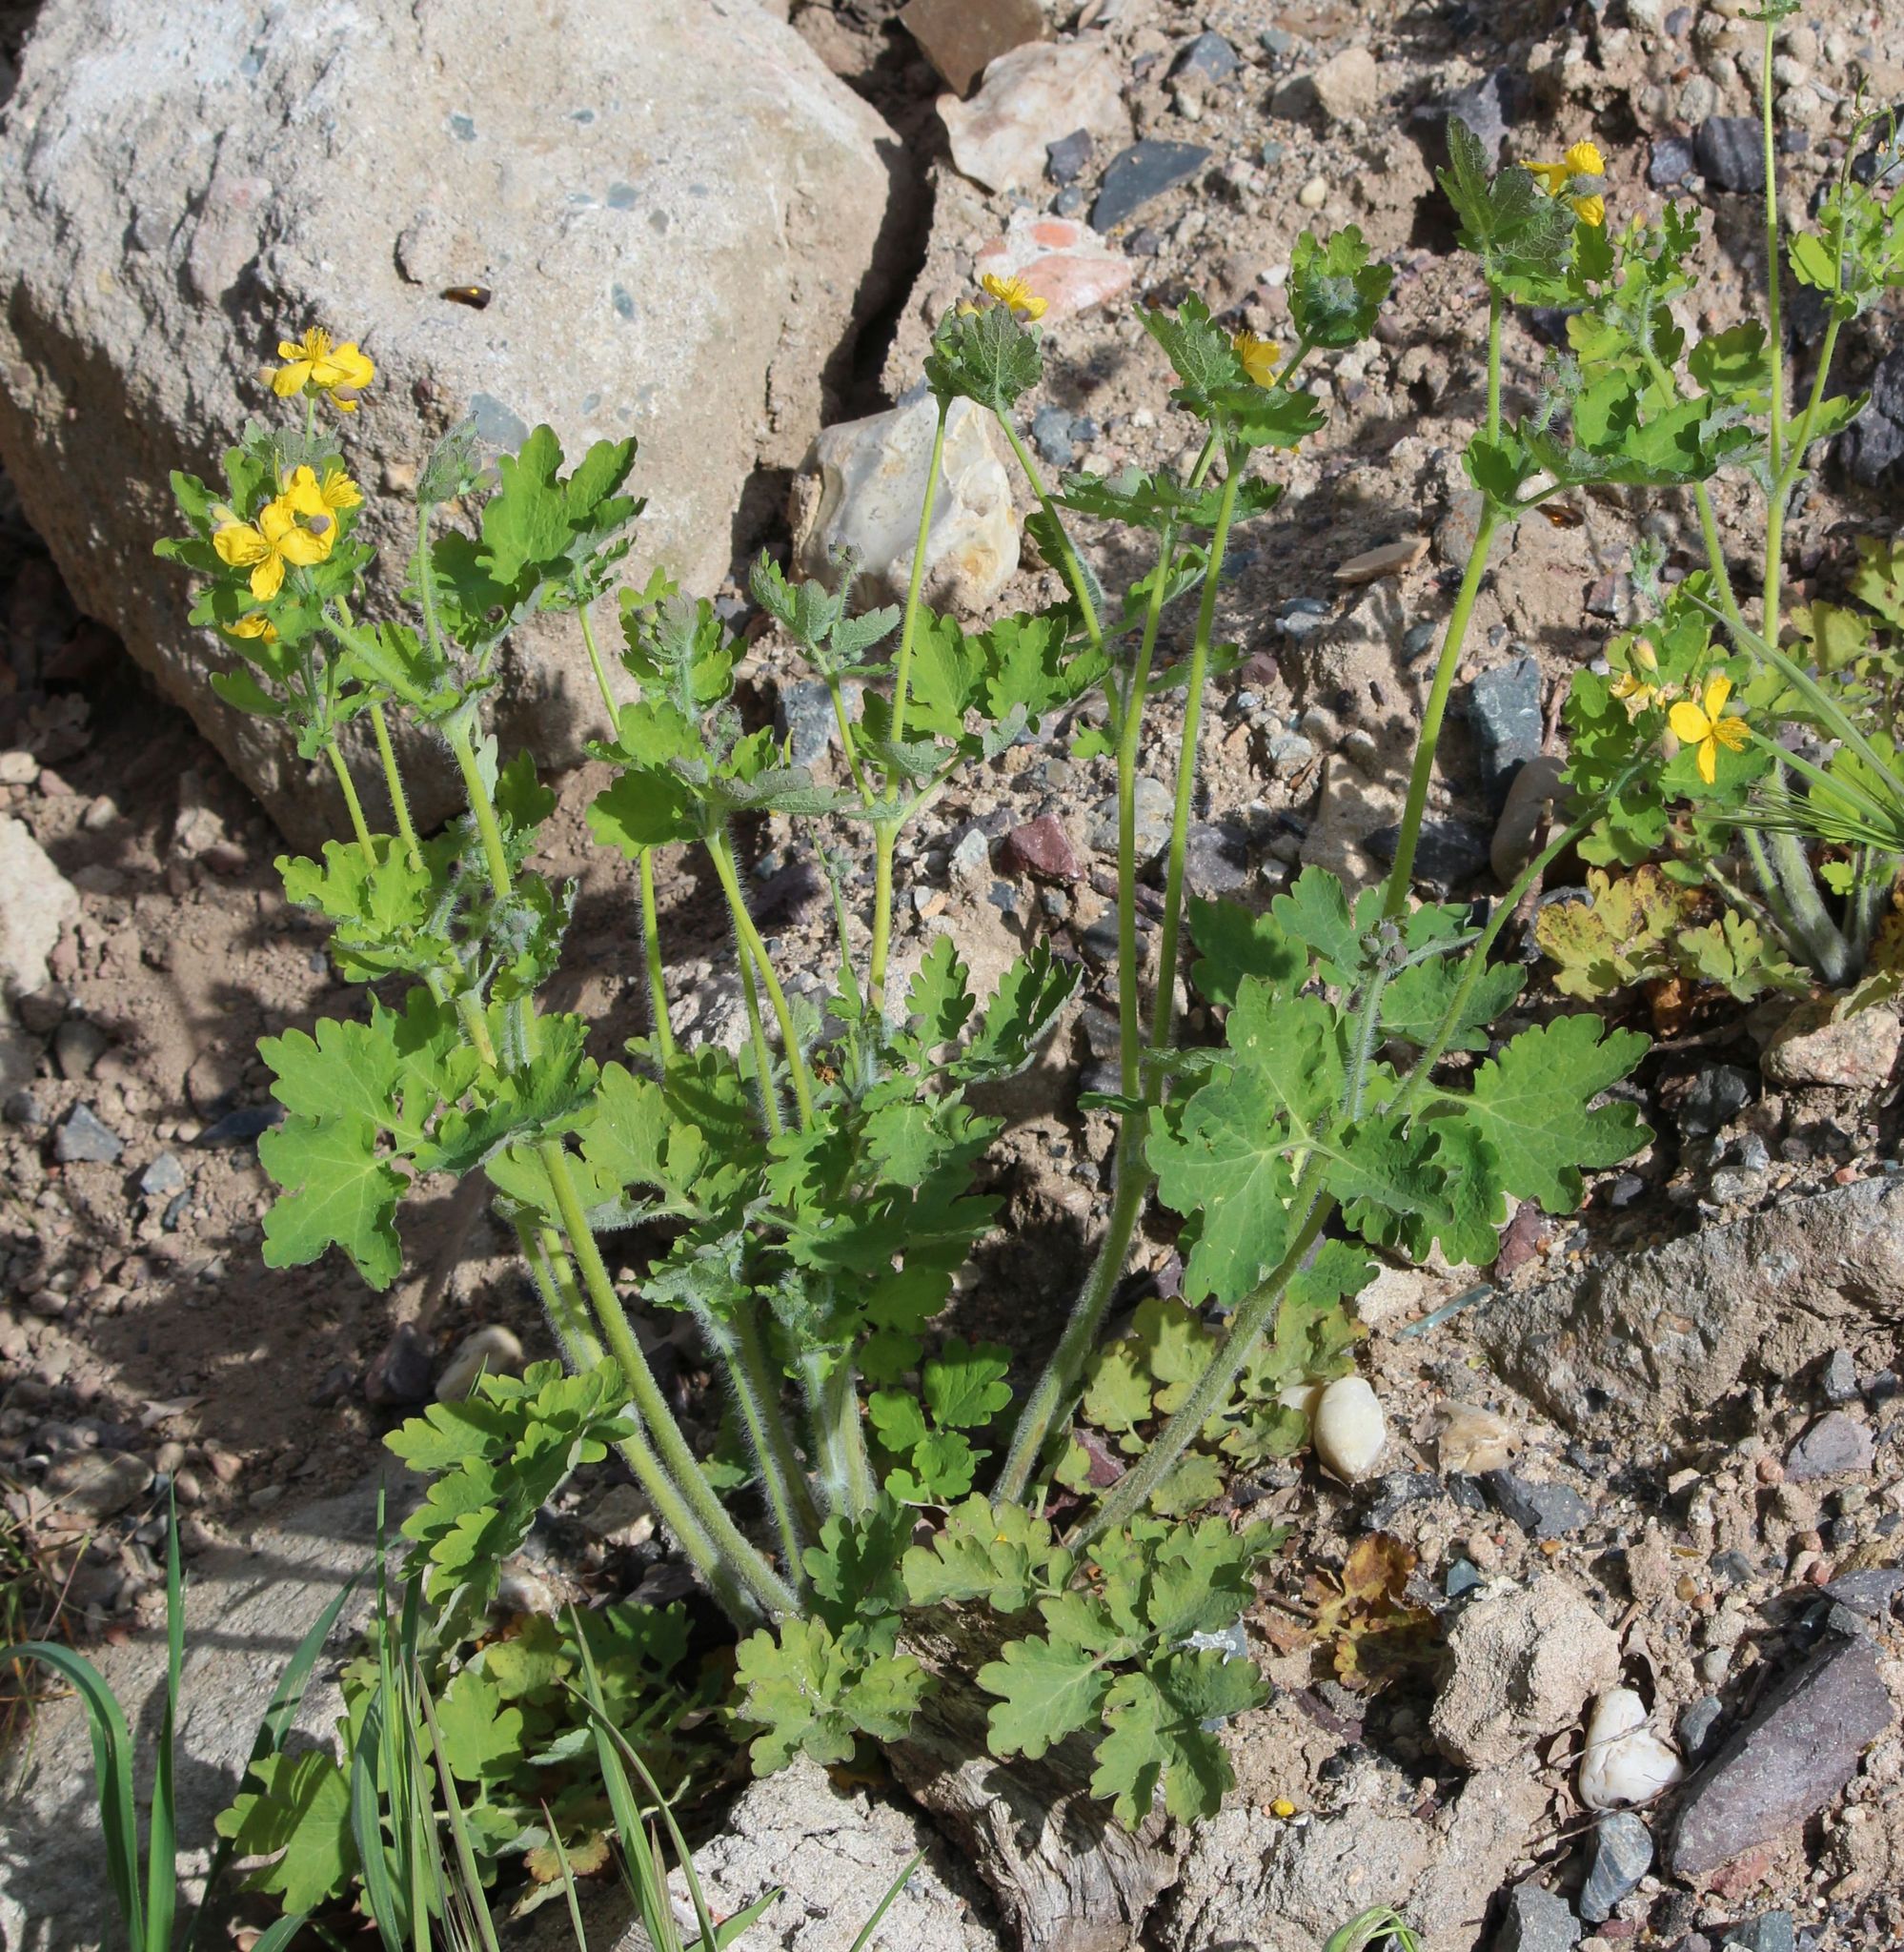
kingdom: Plantae
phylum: Tracheophyta
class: Magnoliopsida
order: Ranunculales
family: Papaveraceae
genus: Chelidonium
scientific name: Chelidonium majus
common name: Greater celandine
